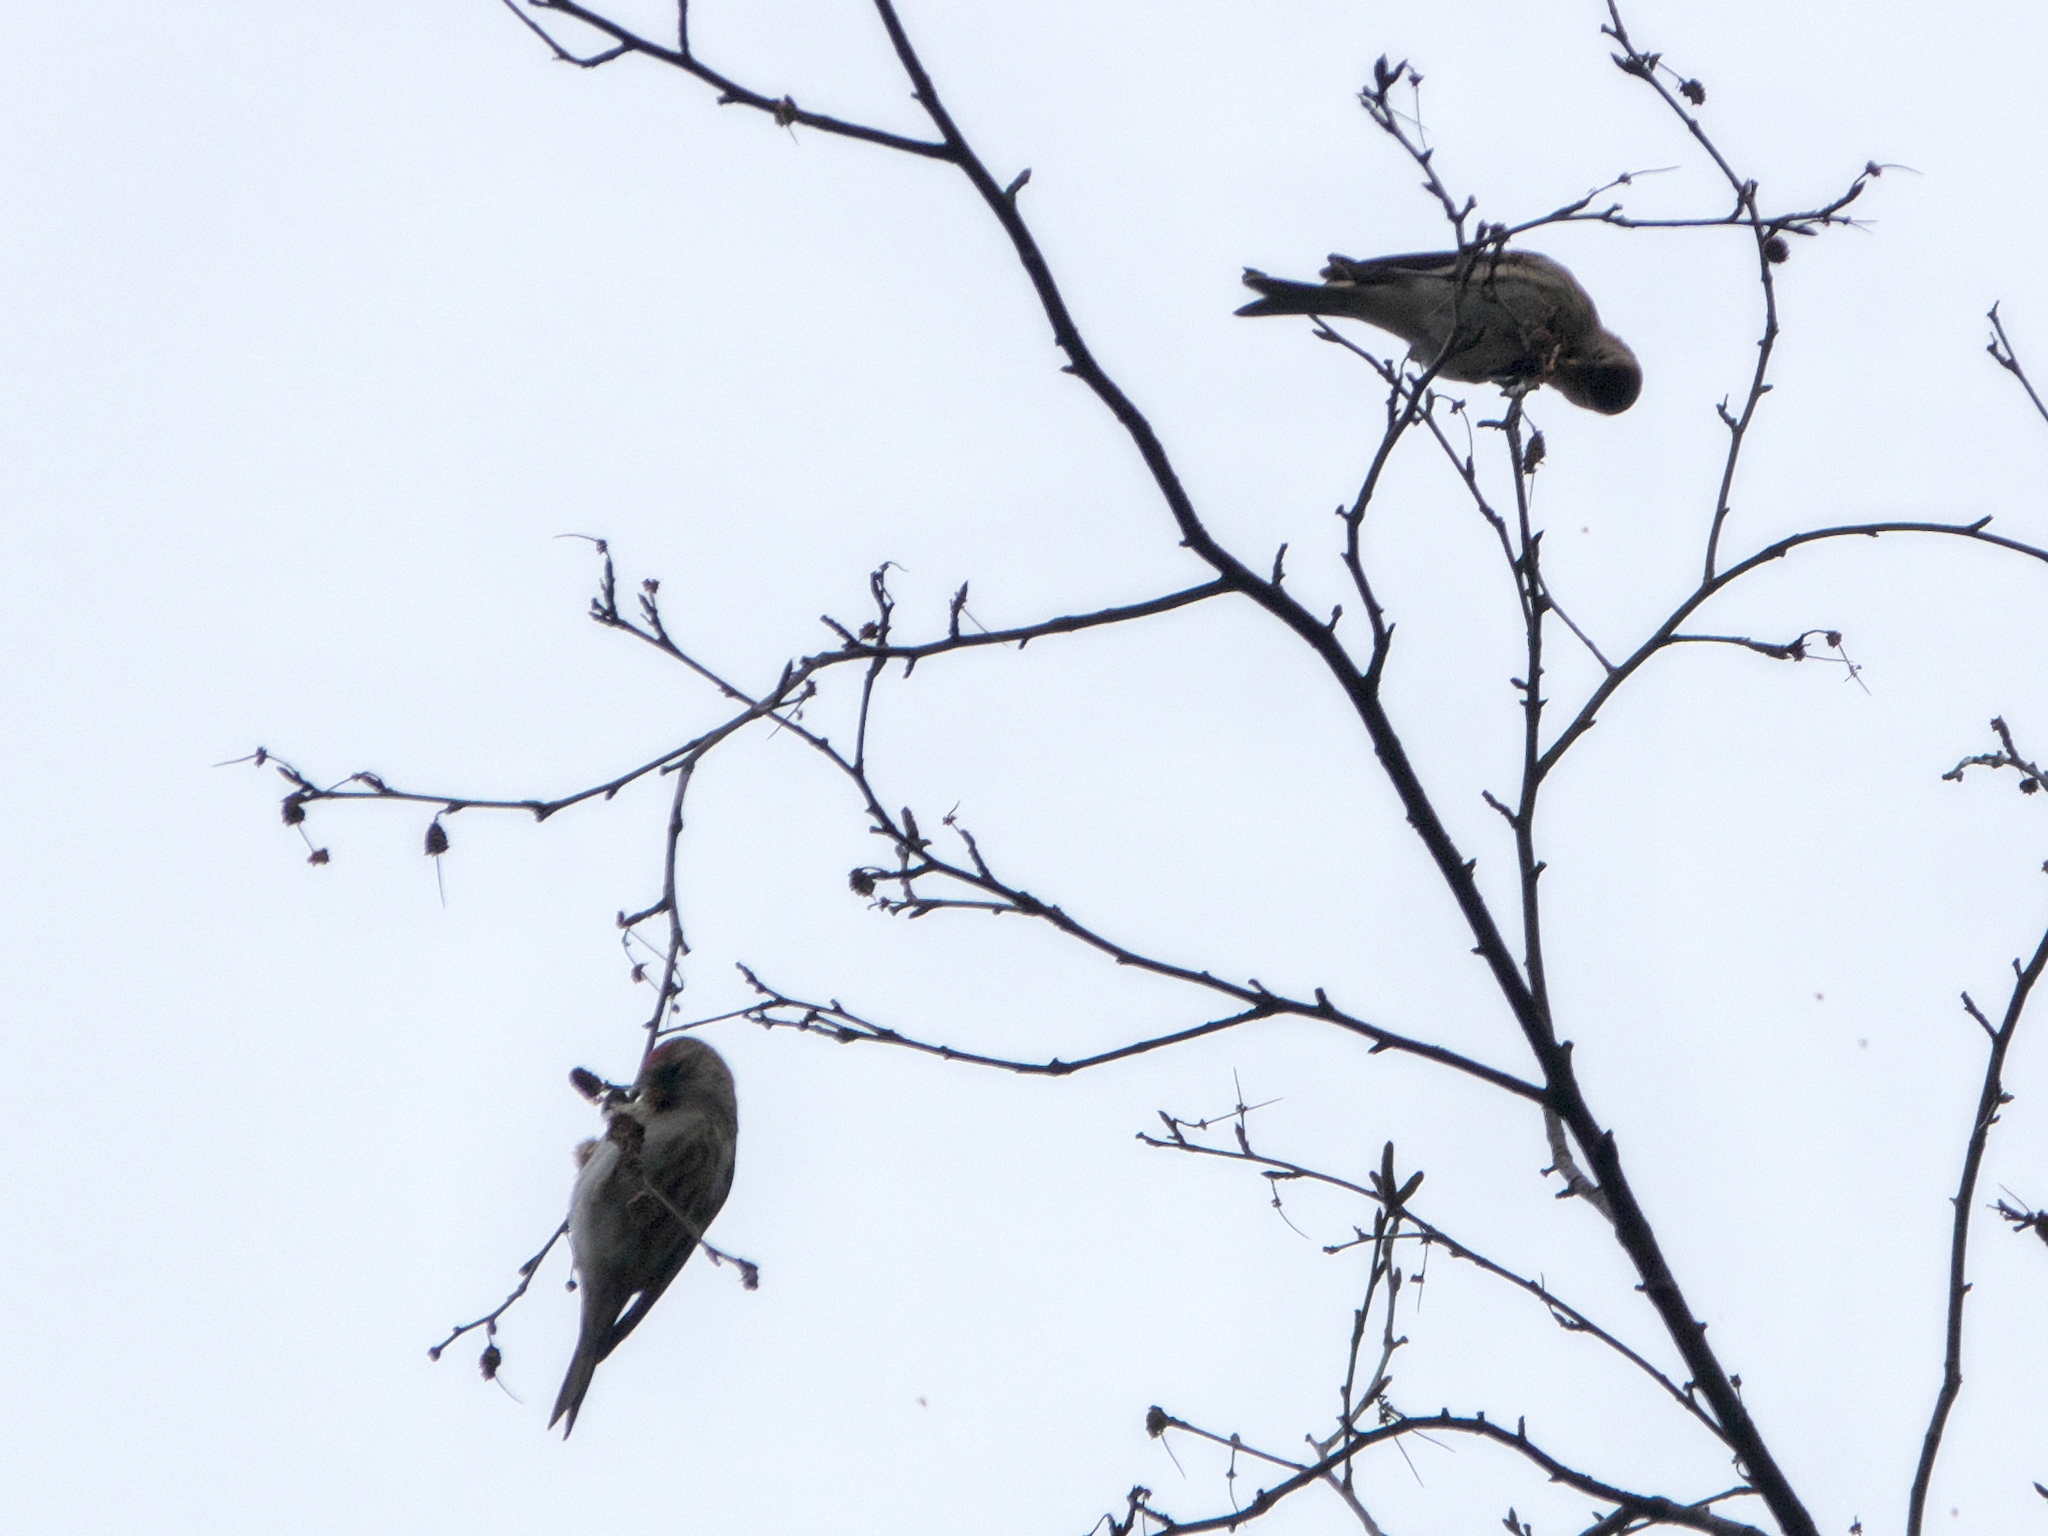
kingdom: Animalia
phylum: Chordata
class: Aves
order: Passeriformes
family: Fringillidae
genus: Acanthis
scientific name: Acanthis flammea
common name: Common redpoll
